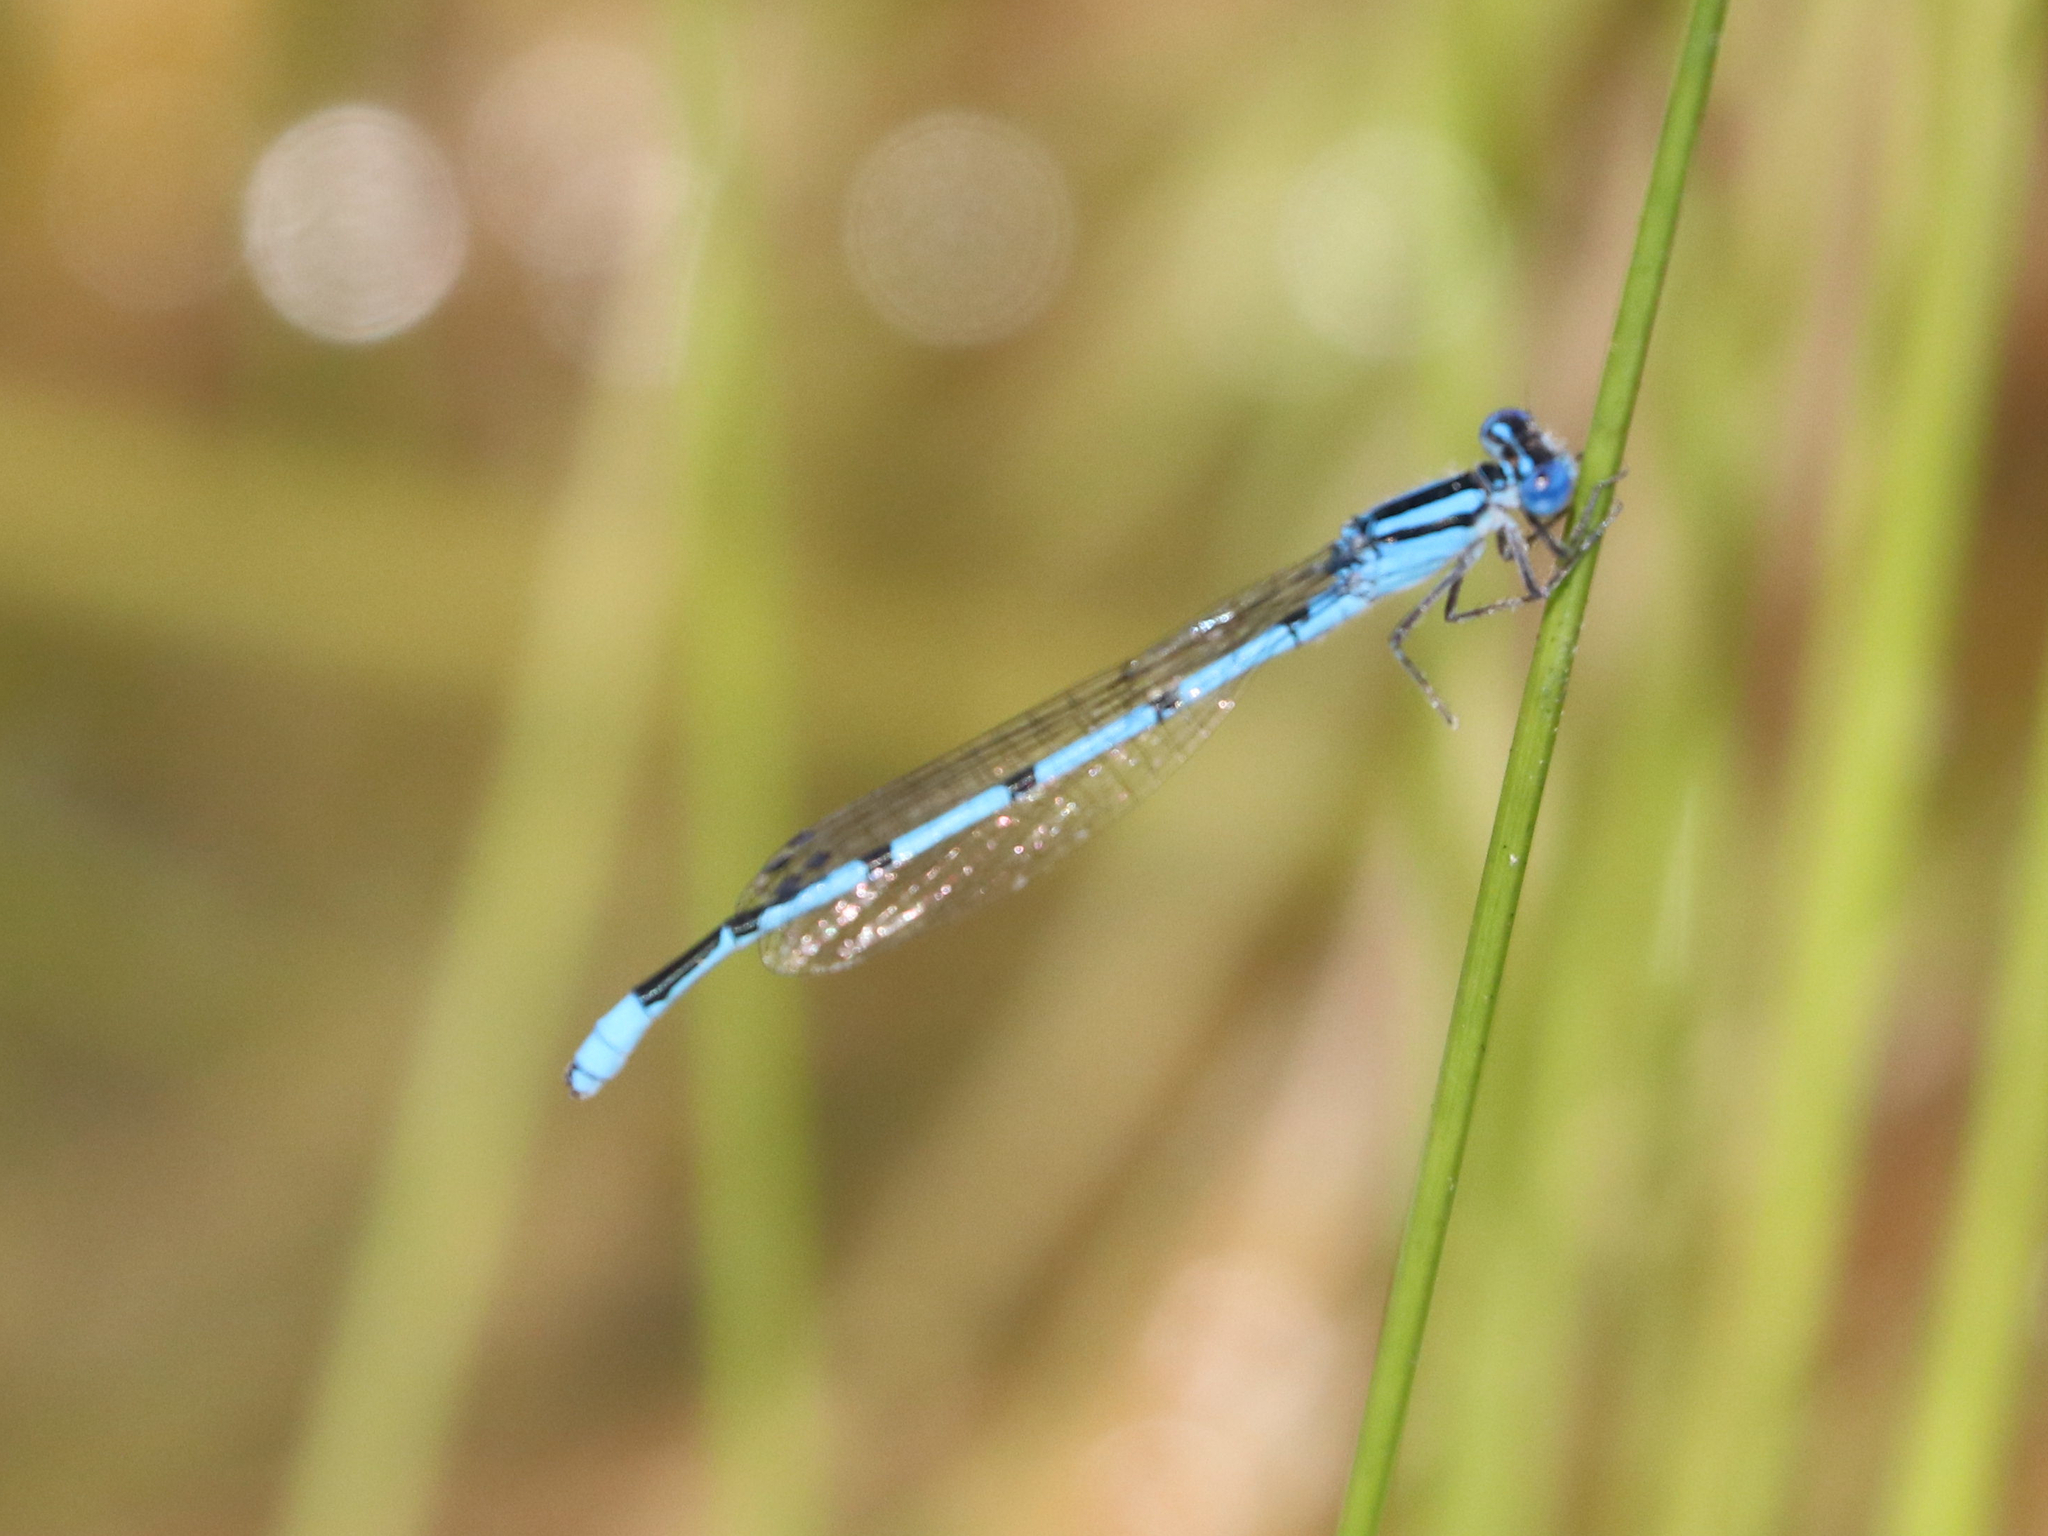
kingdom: Animalia
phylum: Arthropoda
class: Insecta
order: Odonata
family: Coenagrionidae
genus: Enallagma
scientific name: Enallagma doubledayi
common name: Atlantic bluet
